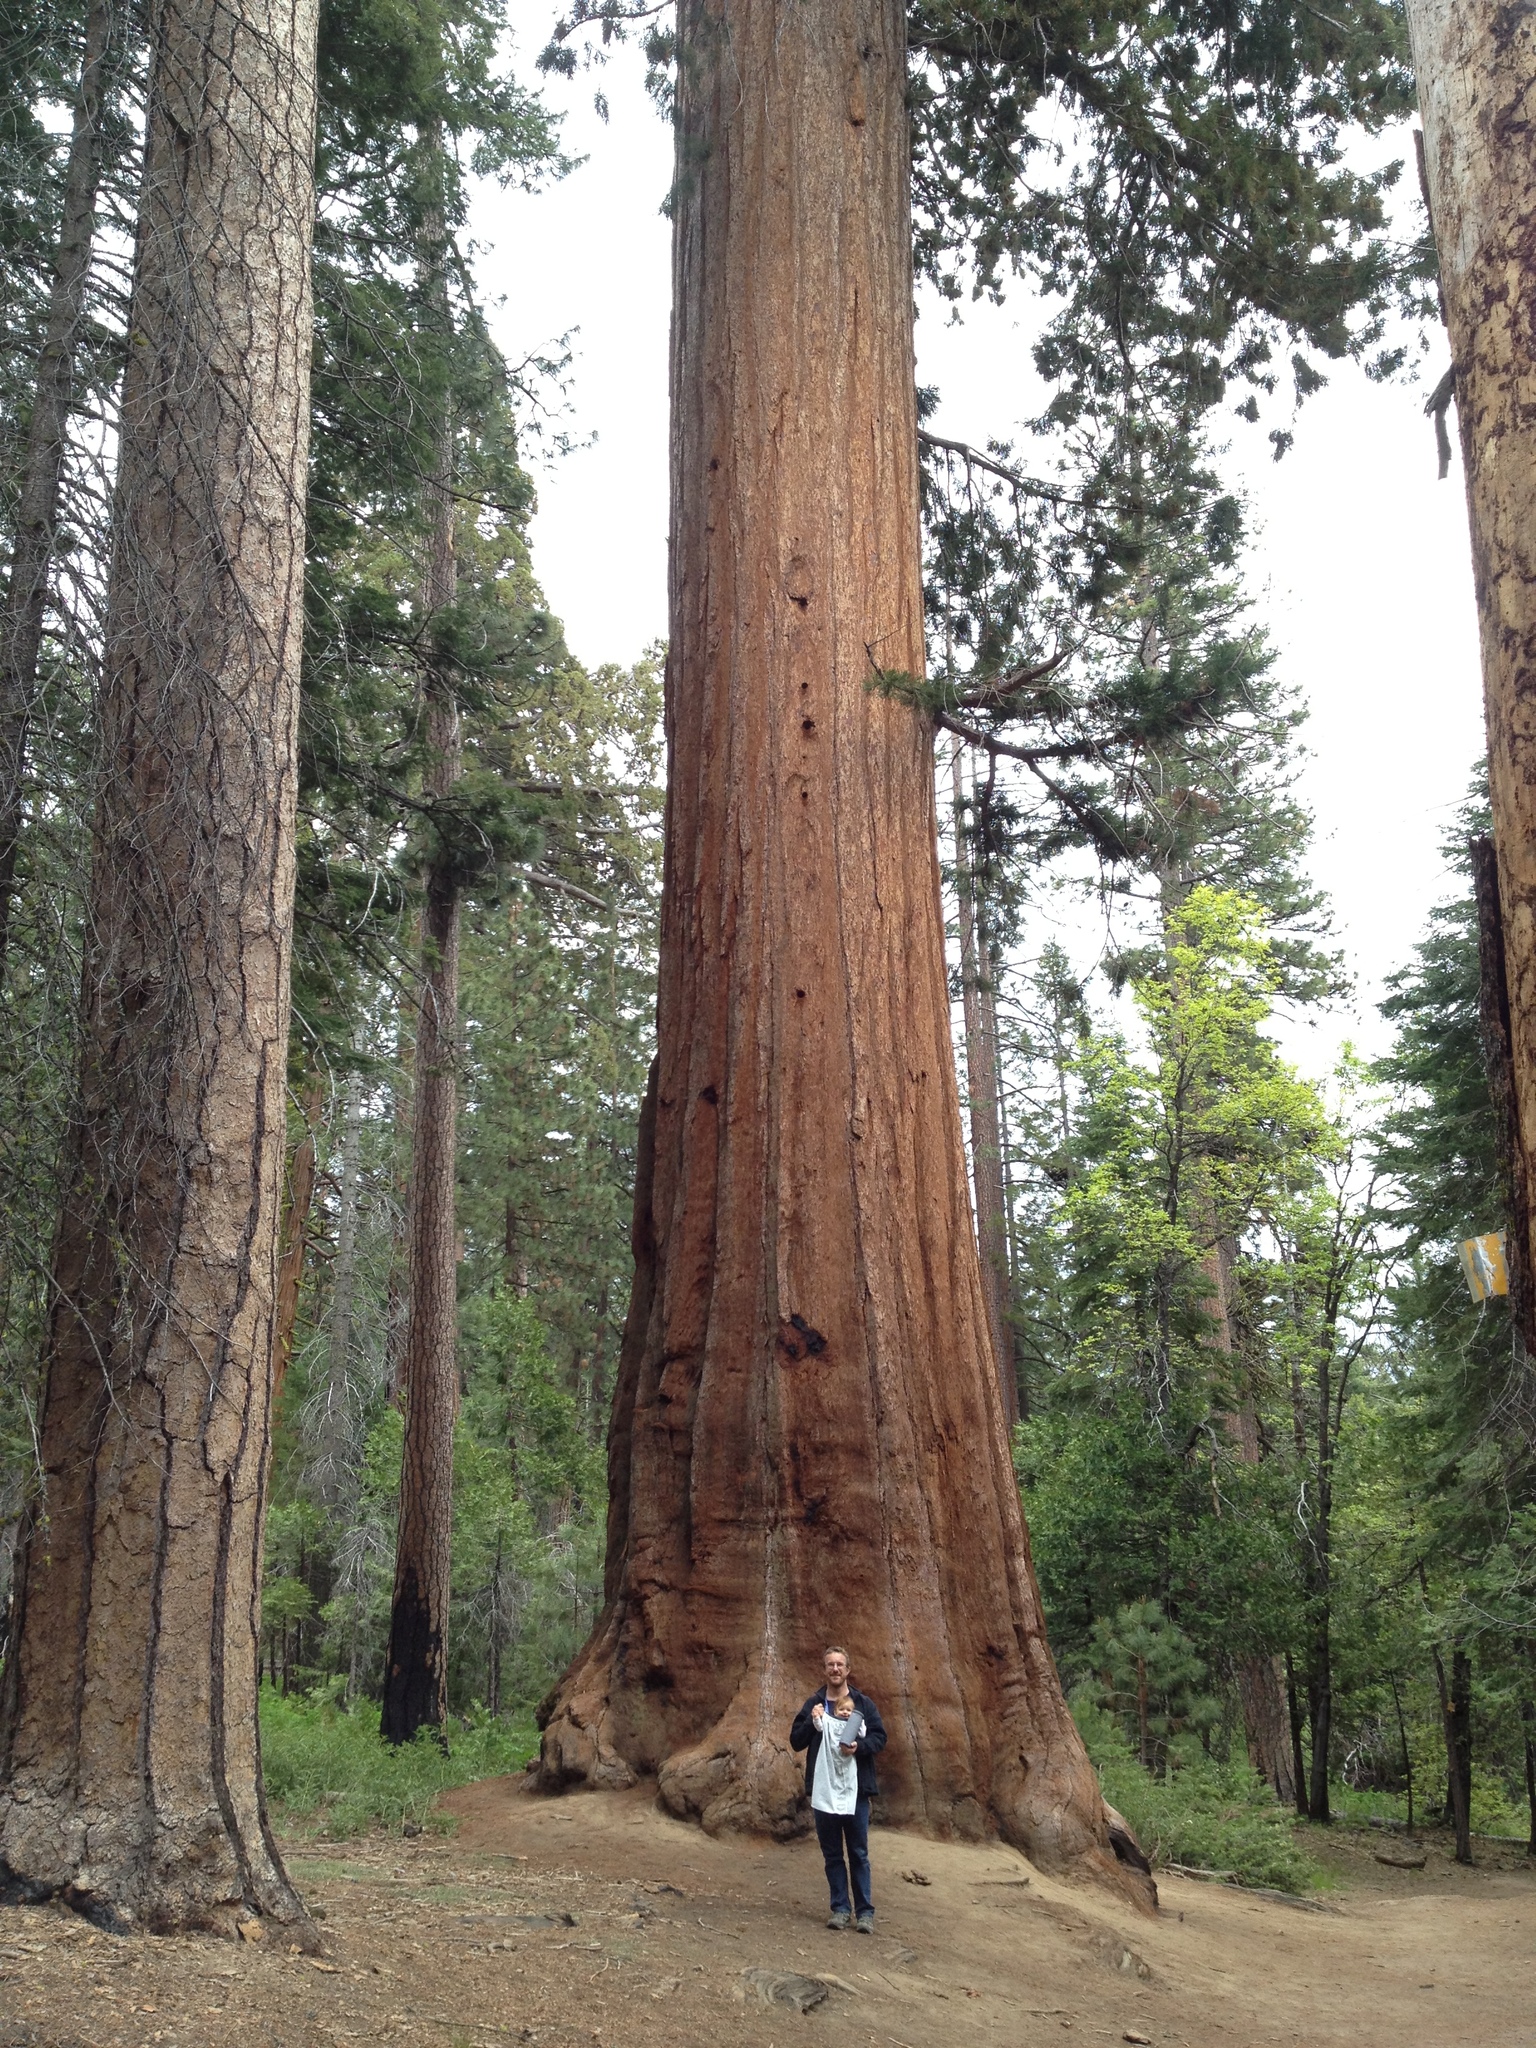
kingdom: Plantae
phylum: Tracheophyta
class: Pinopsida
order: Pinales
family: Cupressaceae
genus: Sequoiadendron
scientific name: Sequoiadendron giganteum
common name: Wellingtonia
